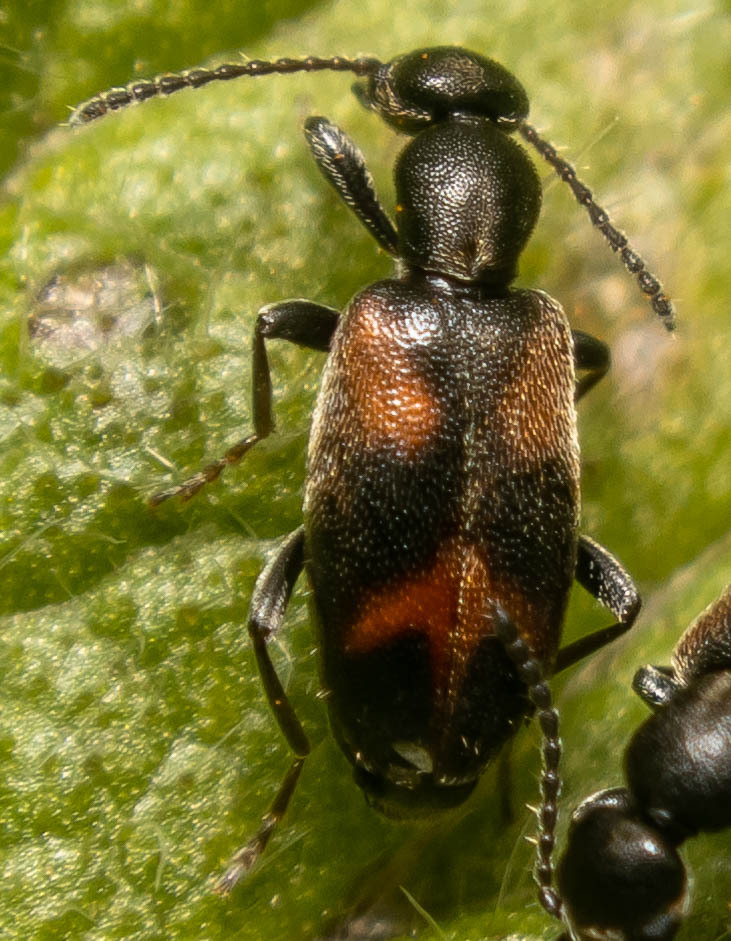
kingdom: Animalia
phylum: Arthropoda
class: Insecta
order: Coleoptera
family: Anthicidae
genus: Anthicus
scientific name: Anthicus antherinus
